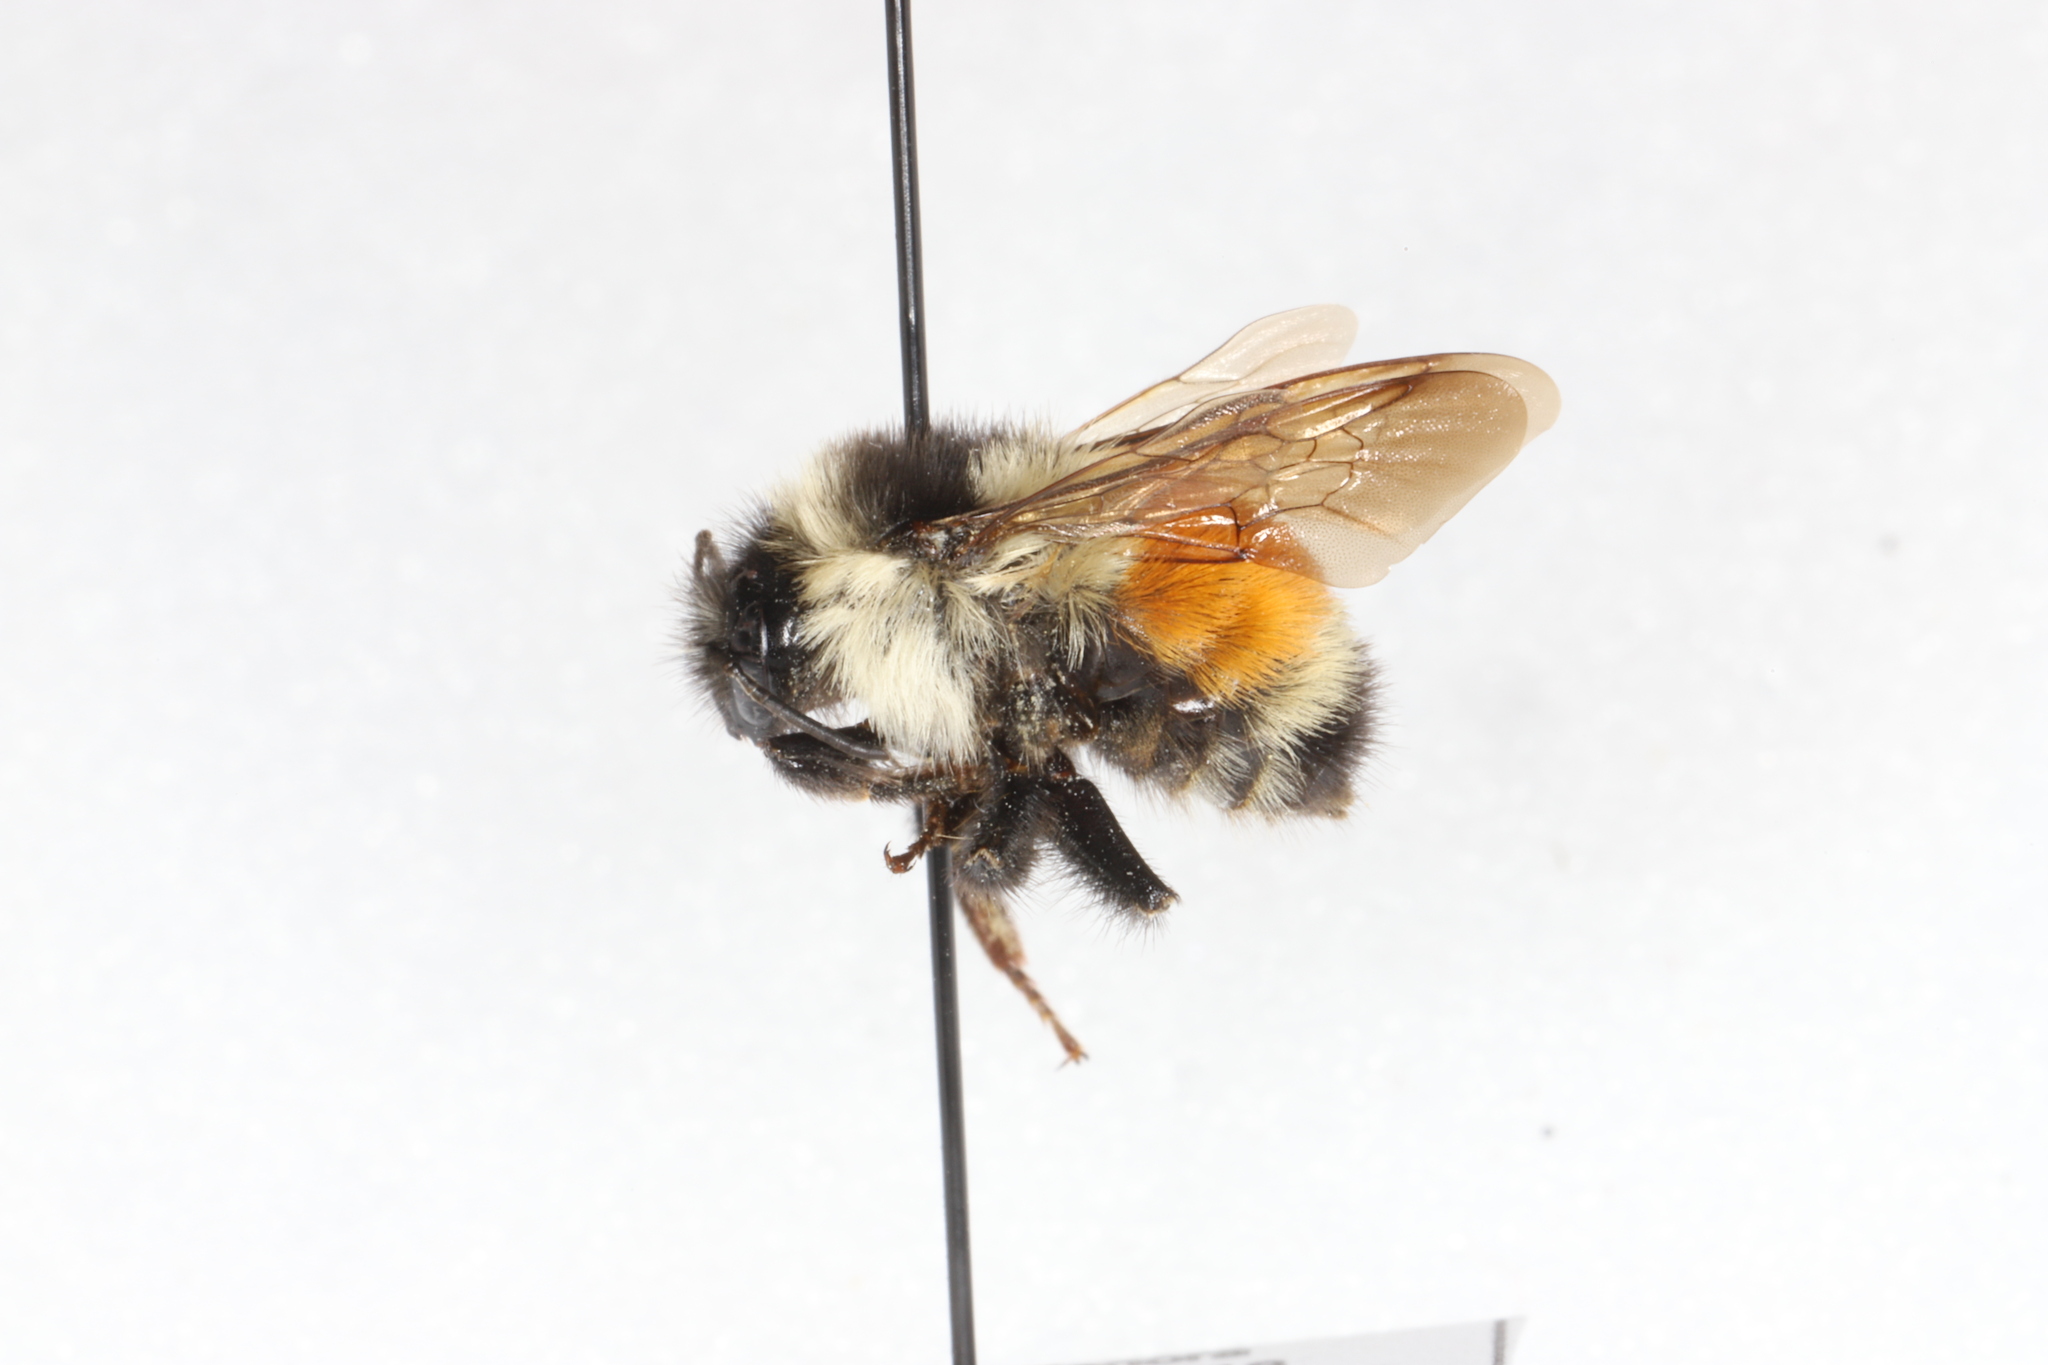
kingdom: Animalia
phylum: Arthropoda
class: Insecta
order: Hymenoptera
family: Apidae
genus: Bombus
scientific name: Bombus ternarius
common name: Tri-colored bumble bee
